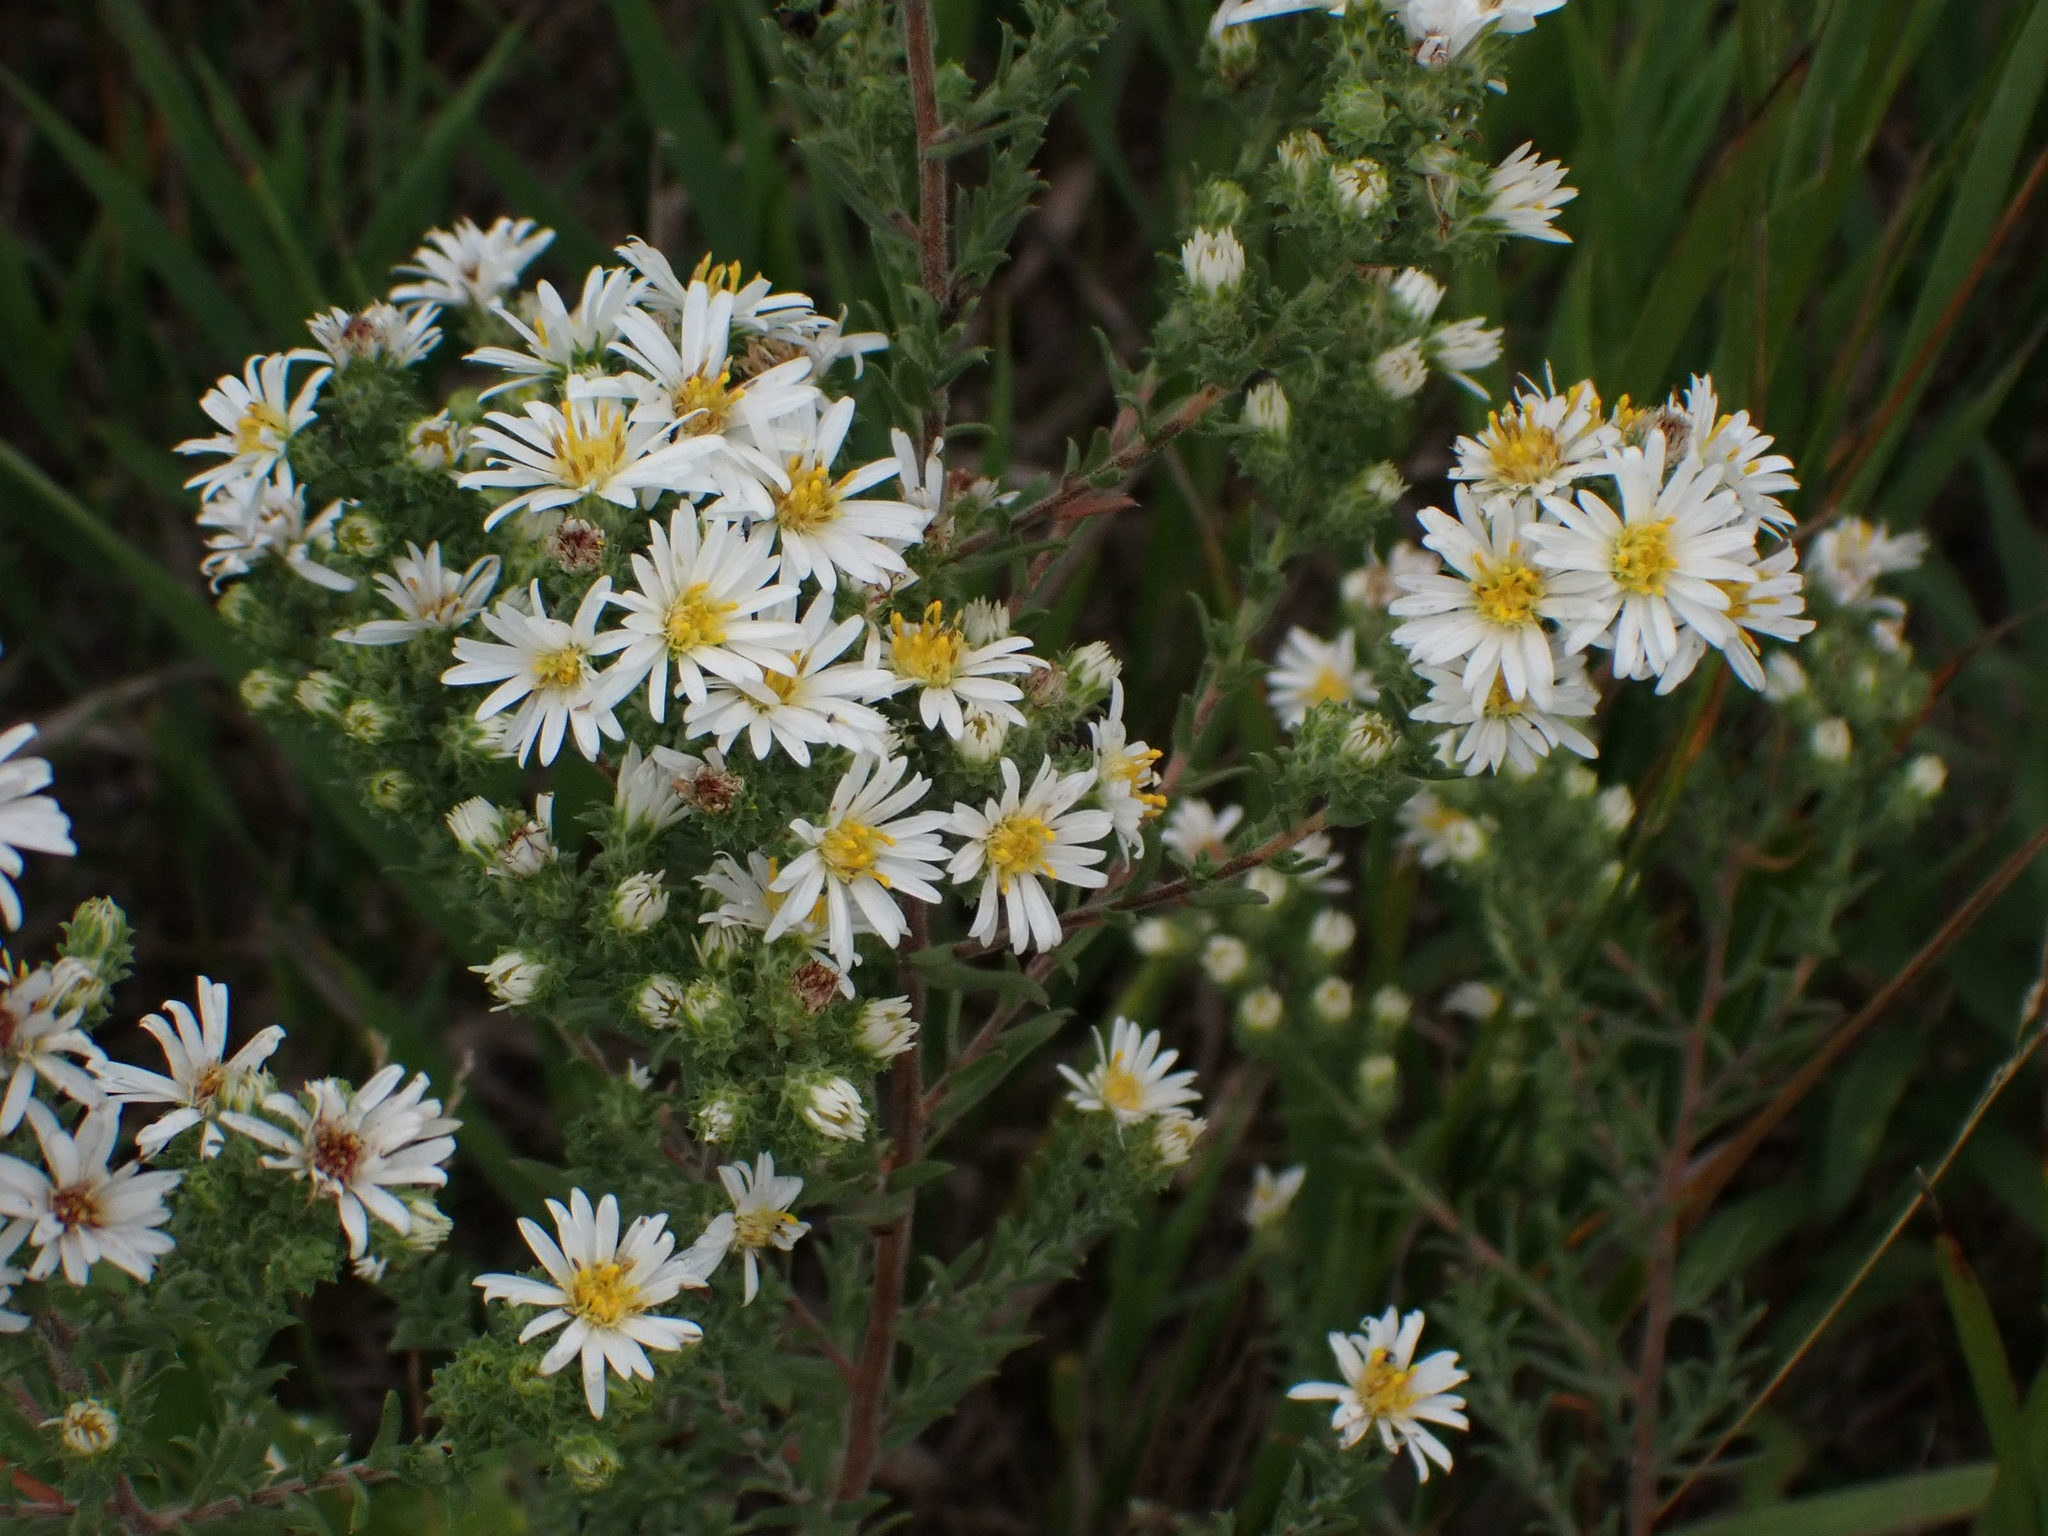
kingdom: Plantae
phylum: Tracheophyta
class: Magnoliopsida
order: Asterales
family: Asteraceae
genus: Symphyotrichum
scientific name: Symphyotrichum ericoides
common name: Heath aster
